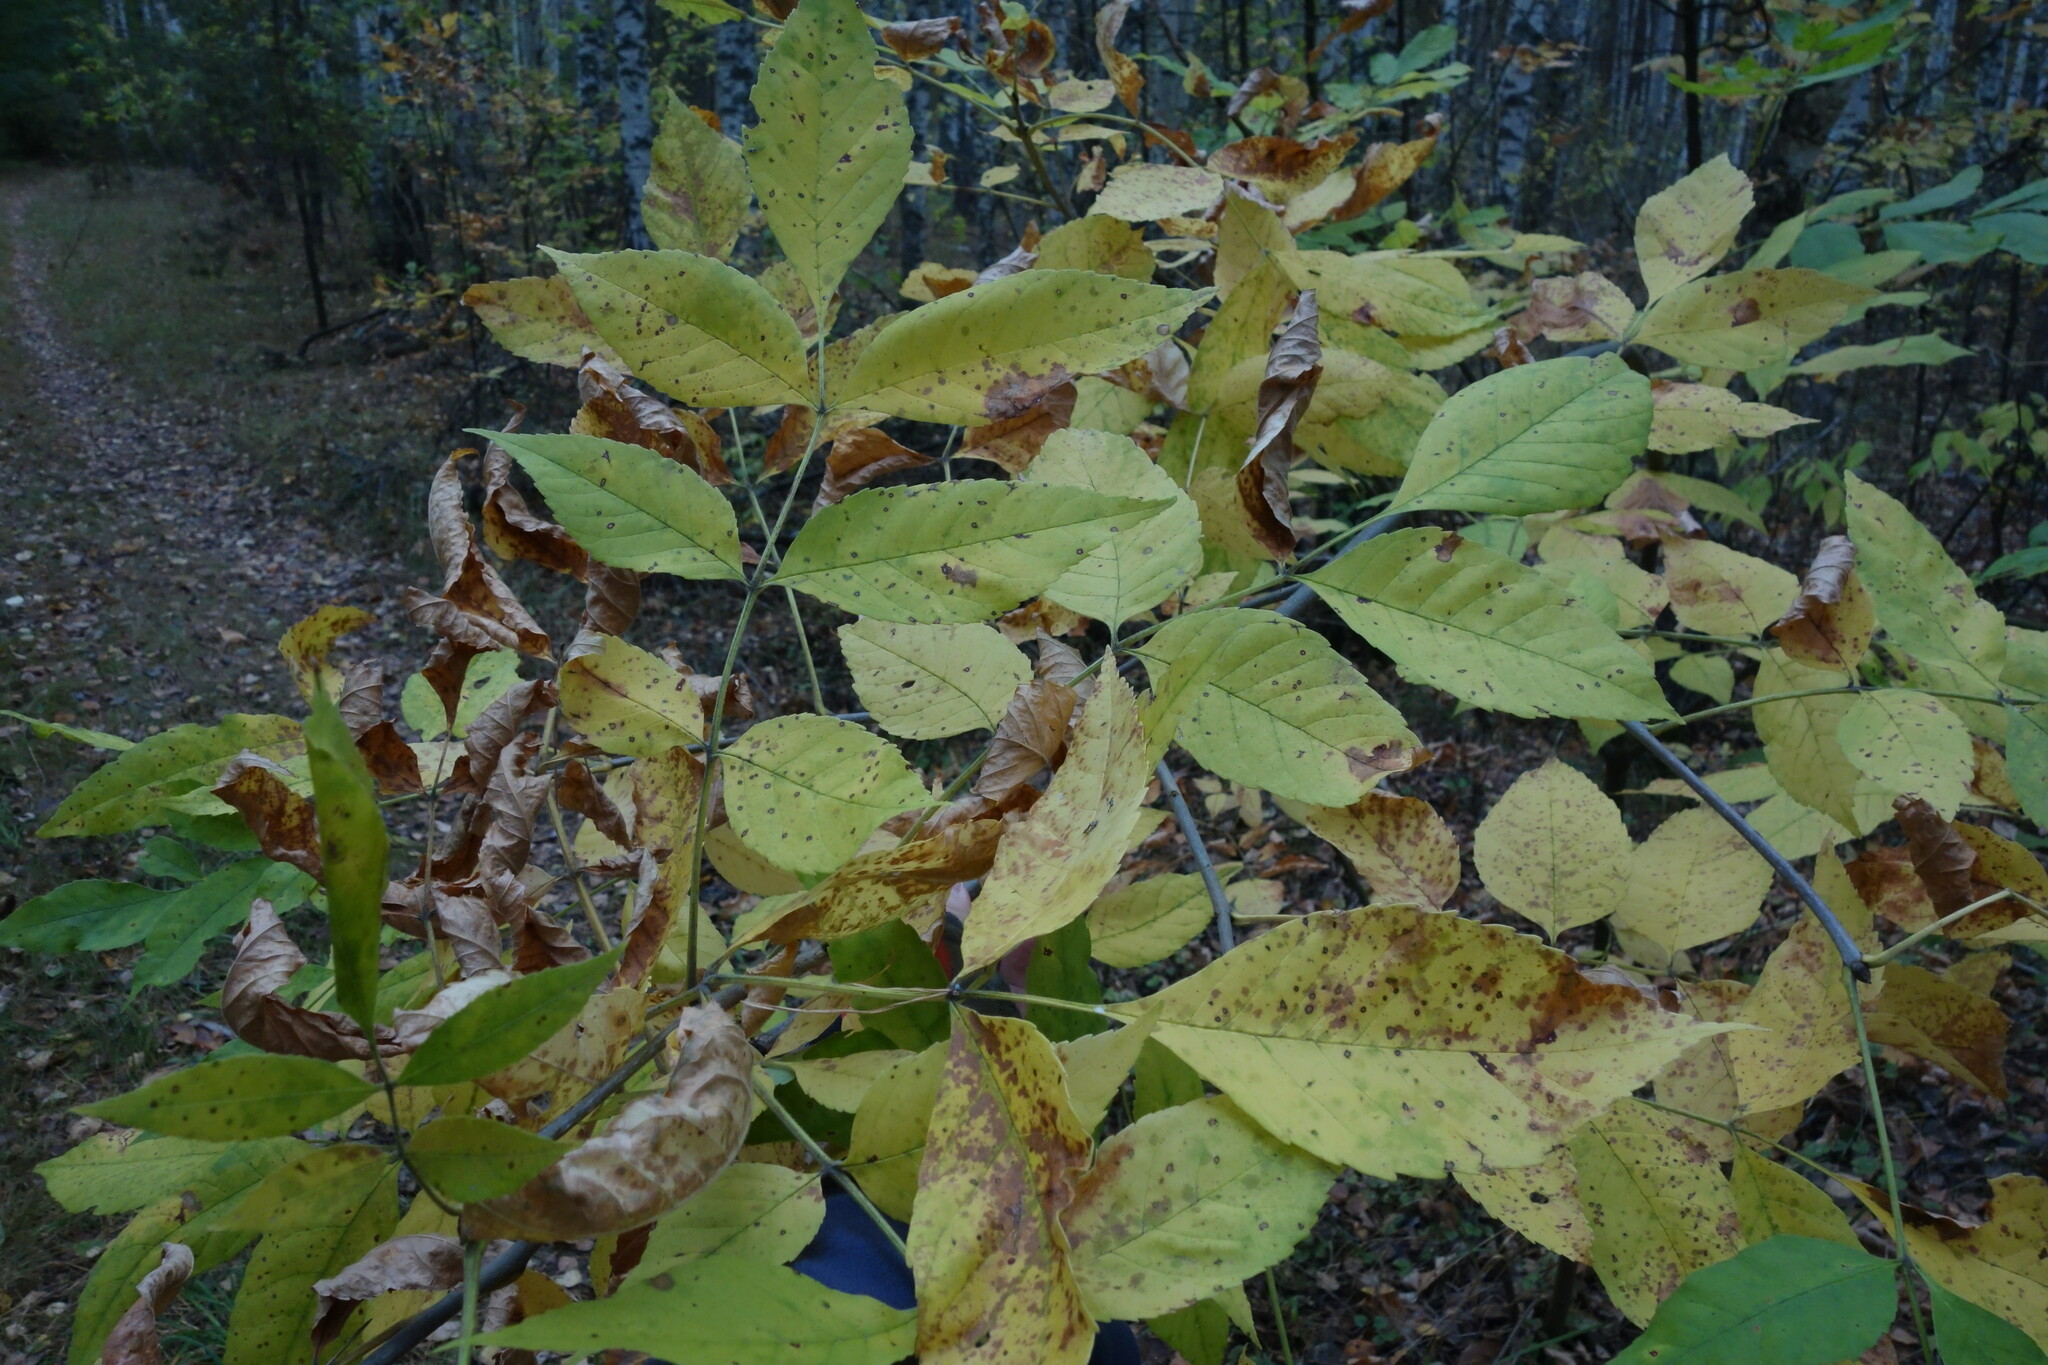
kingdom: Plantae
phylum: Tracheophyta
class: Magnoliopsida
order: Lamiales
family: Oleaceae
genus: Fraxinus
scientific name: Fraxinus pennsylvanica
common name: Green ash
